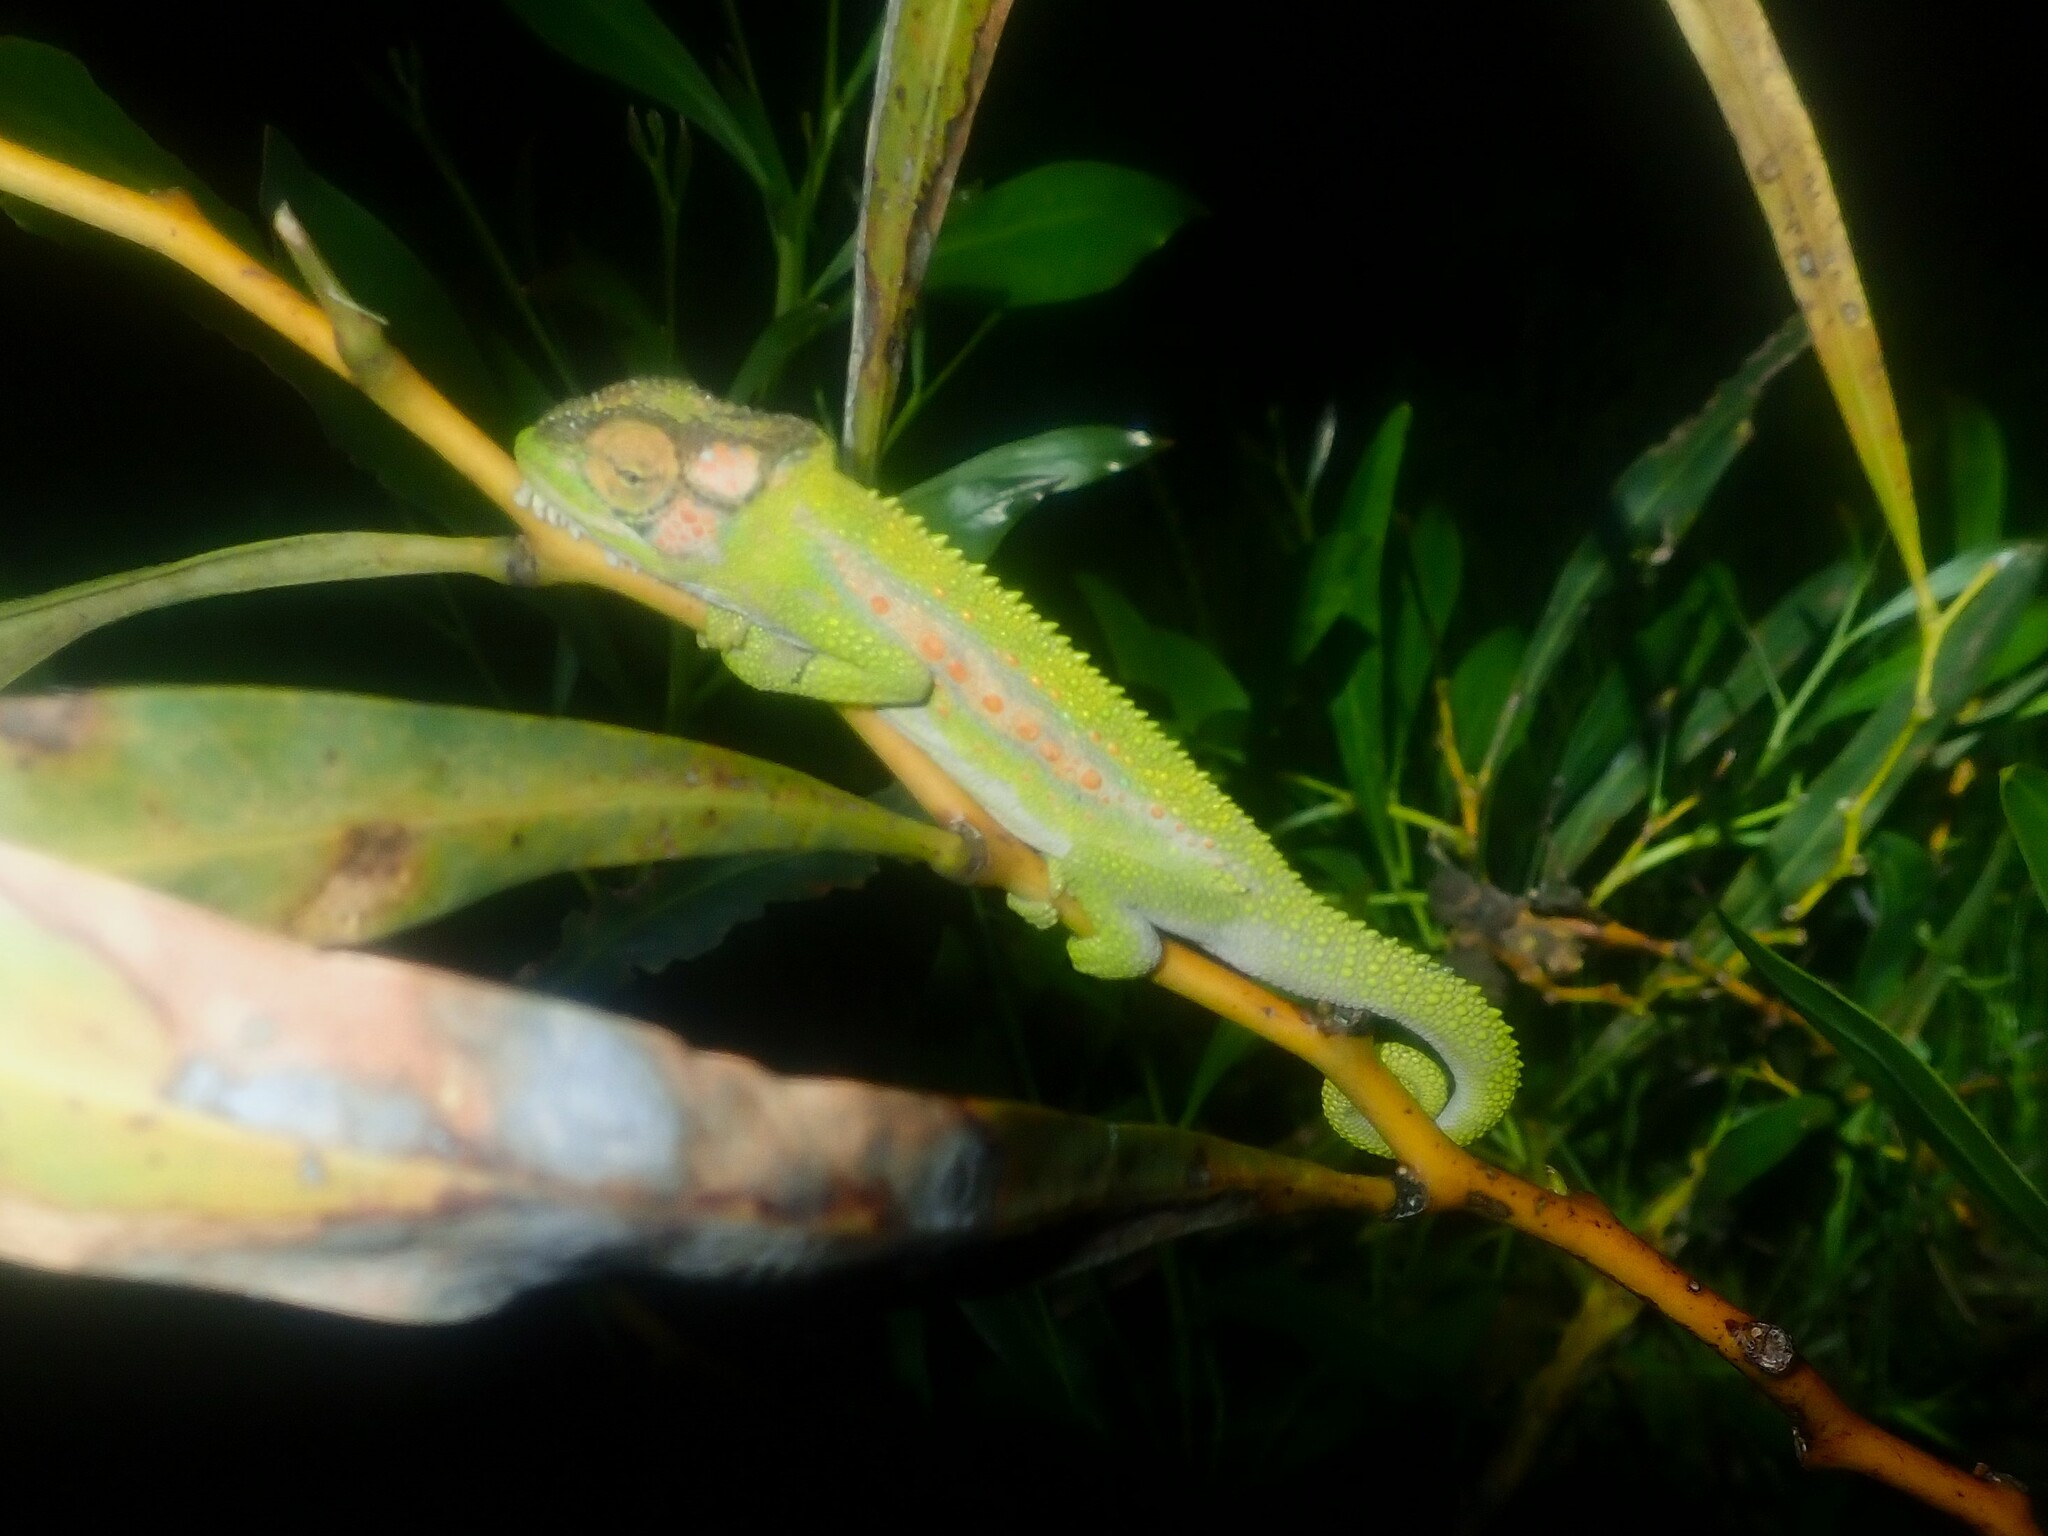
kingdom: Animalia
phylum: Chordata
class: Squamata
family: Chamaeleonidae
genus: Bradypodion
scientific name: Bradypodion pumilum
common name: Cape dwarf chameleon
